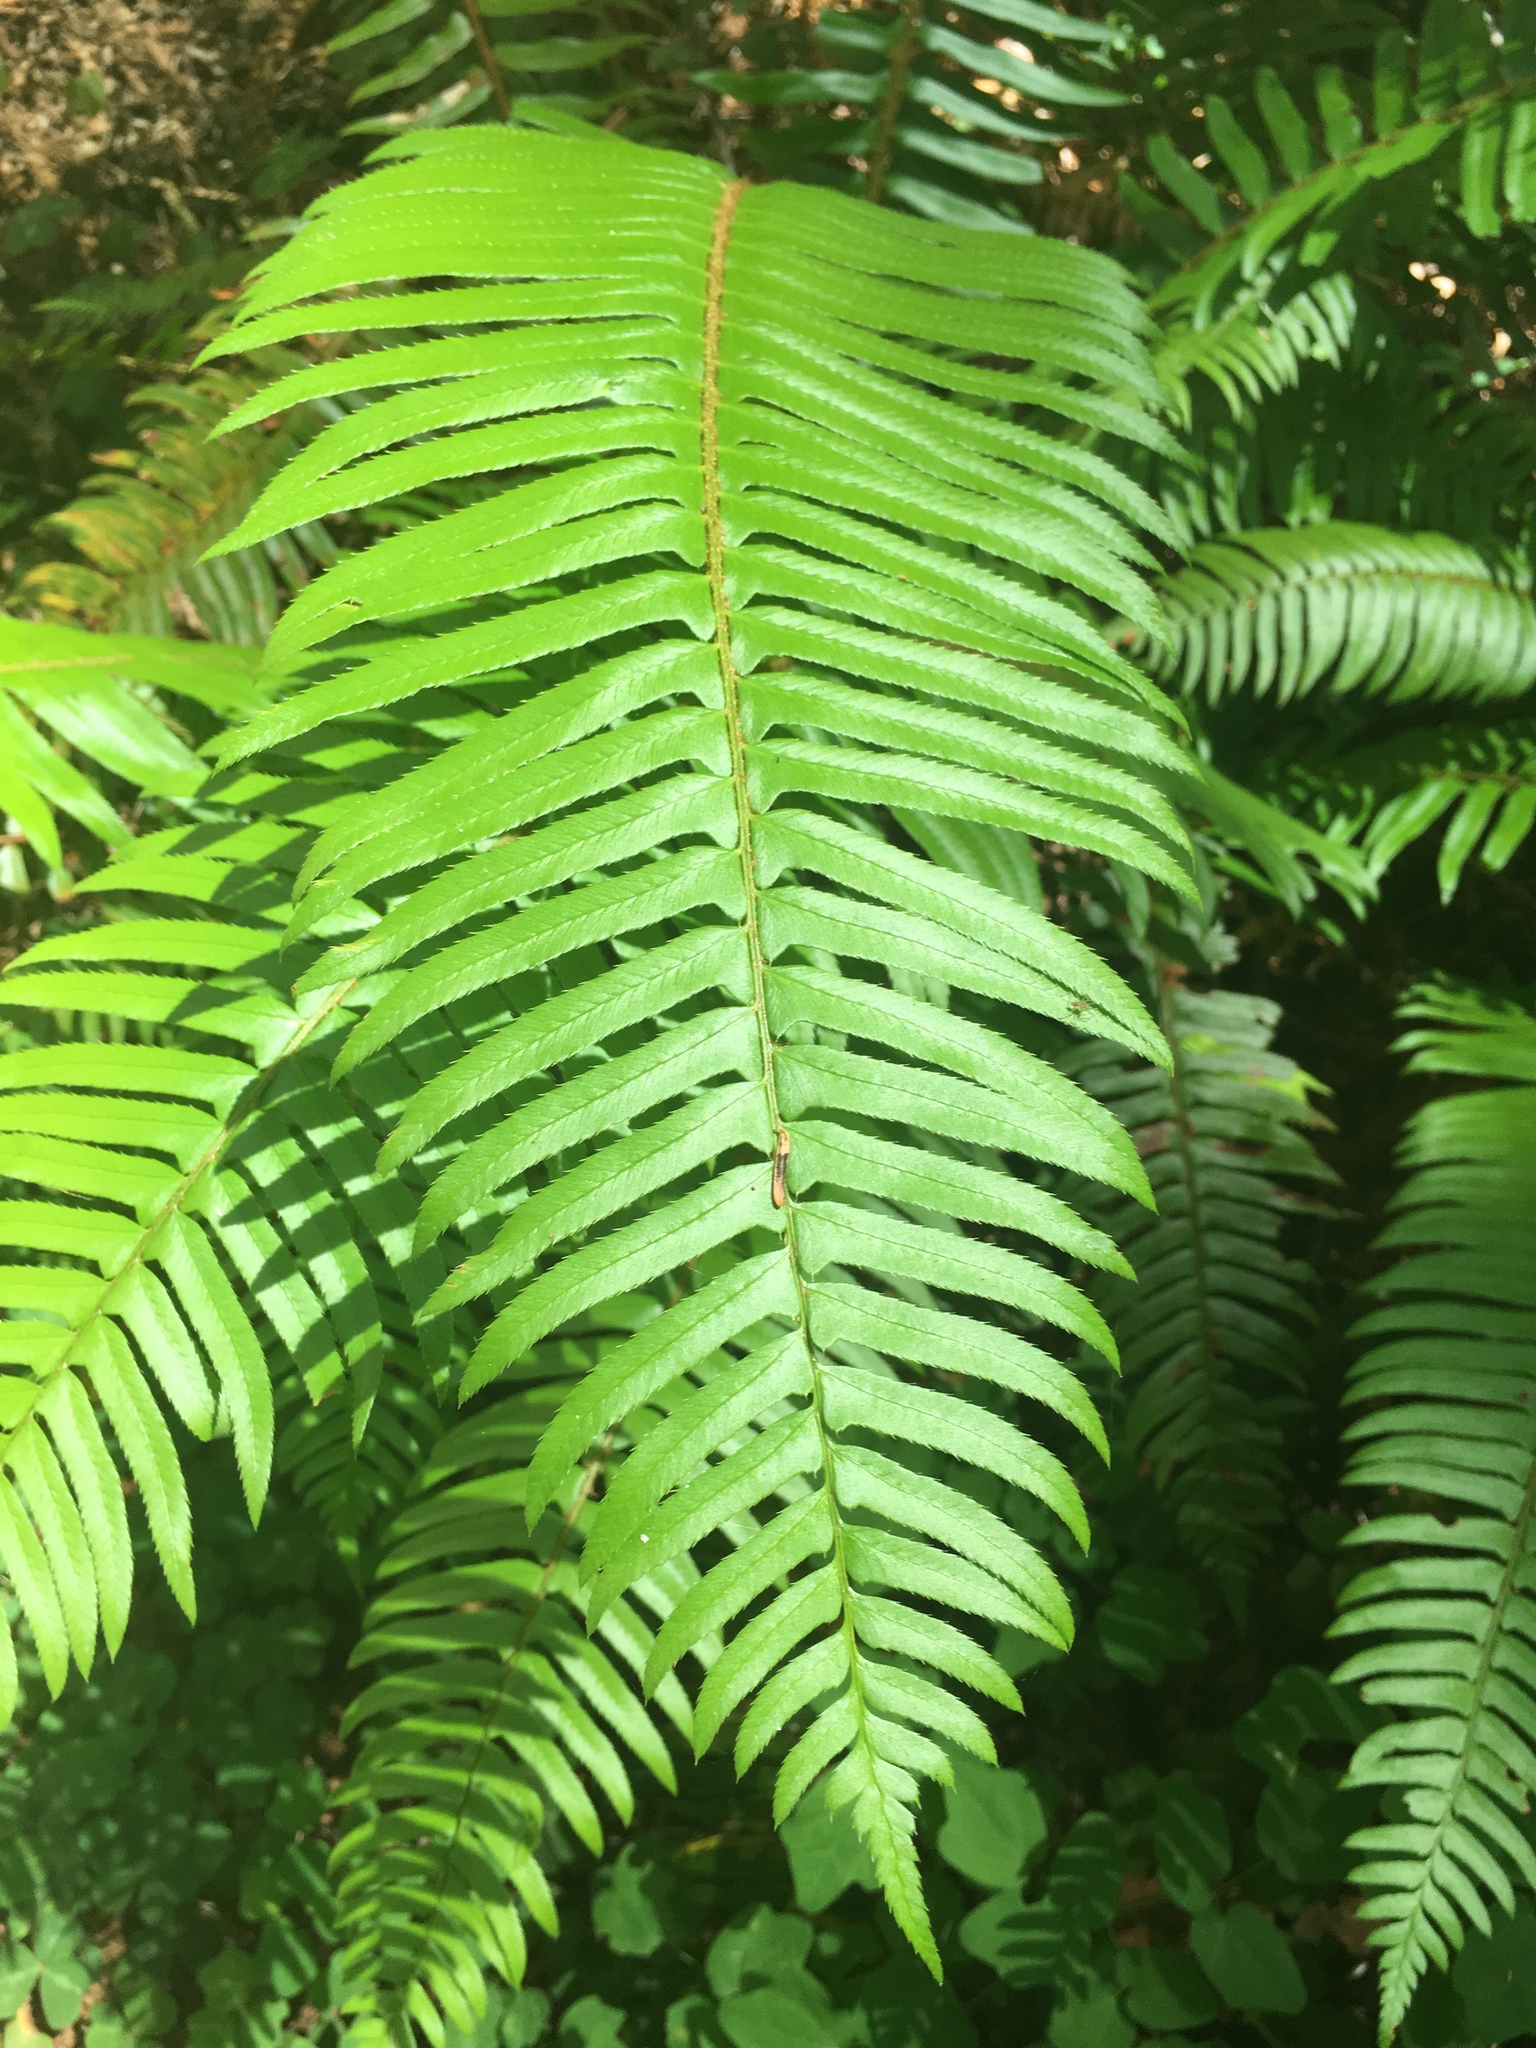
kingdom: Plantae
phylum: Tracheophyta
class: Polypodiopsida
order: Polypodiales
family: Dryopteridaceae
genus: Polystichum
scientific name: Polystichum munitum
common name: Western sword-fern
